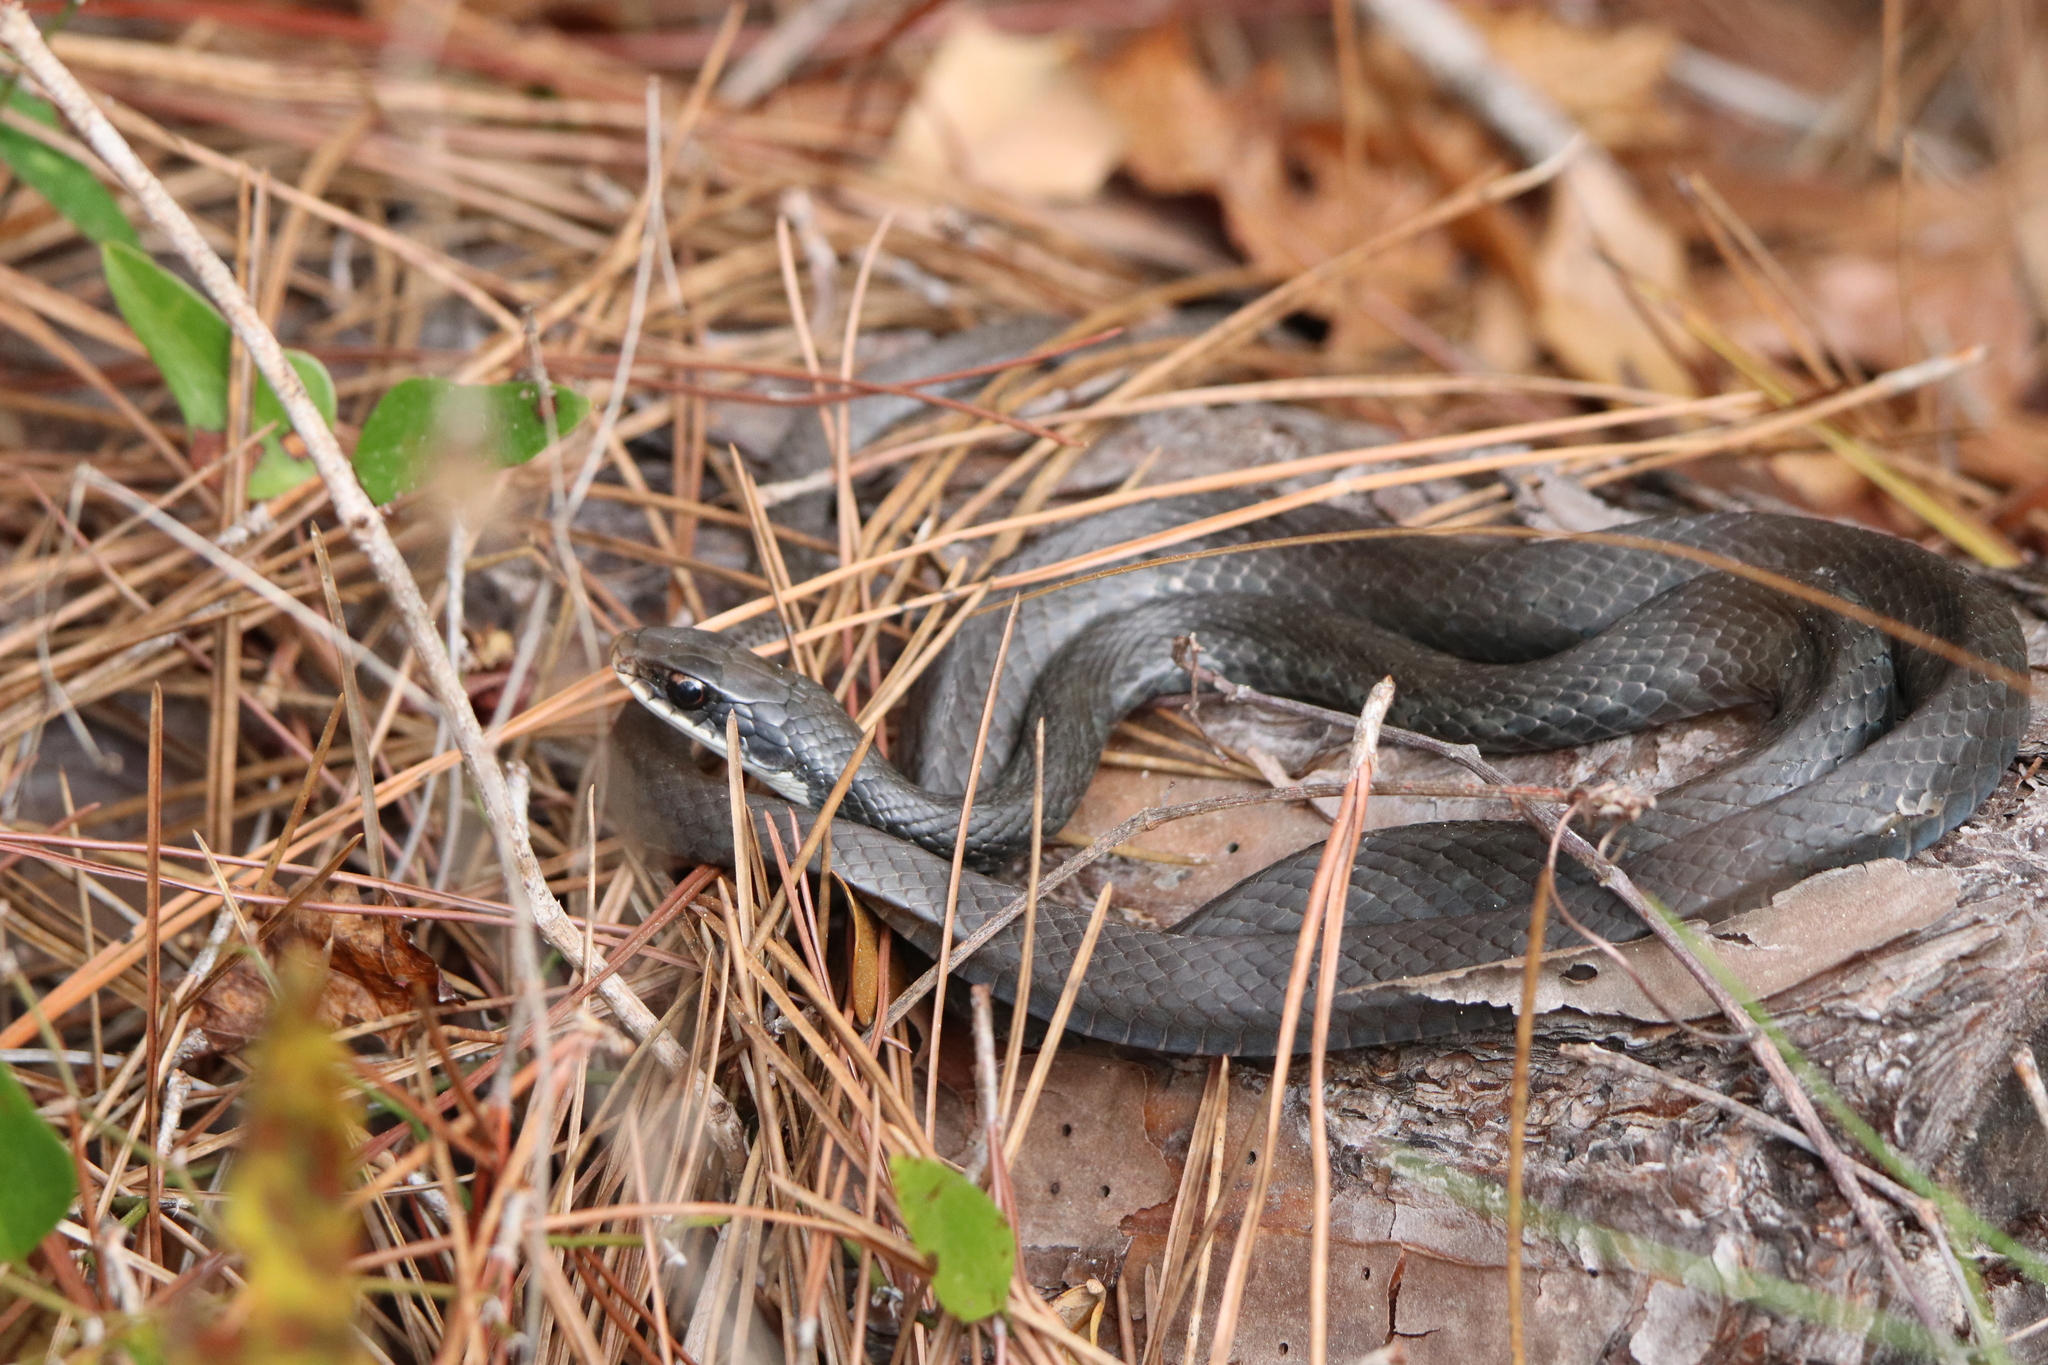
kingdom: Animalia
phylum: Chordata
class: Squamata
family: Colubridae
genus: Coluber
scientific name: Coluber constrictor
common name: Eastern racer
